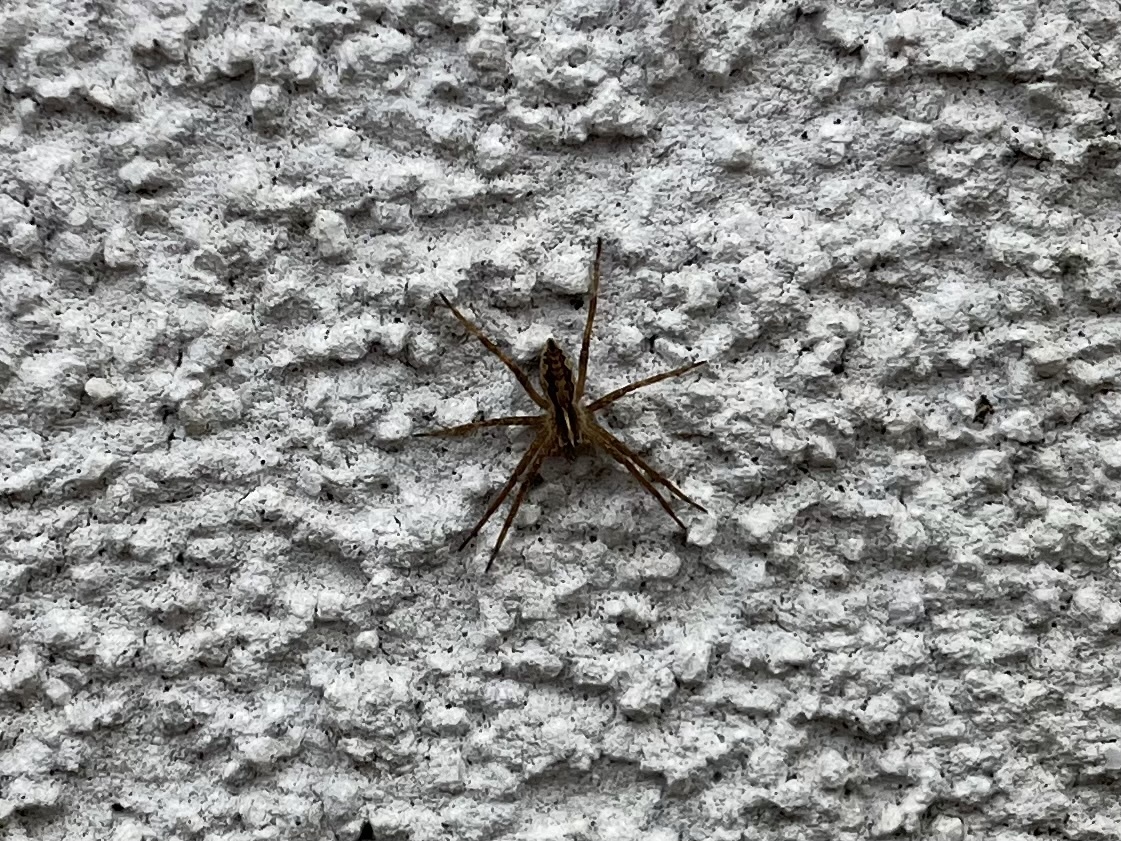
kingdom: Animalia
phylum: Arthropoda
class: Arachnida
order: Araneae
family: Pisauridae
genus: Pisaura
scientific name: Pisaura mirabilis
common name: Tent spider
